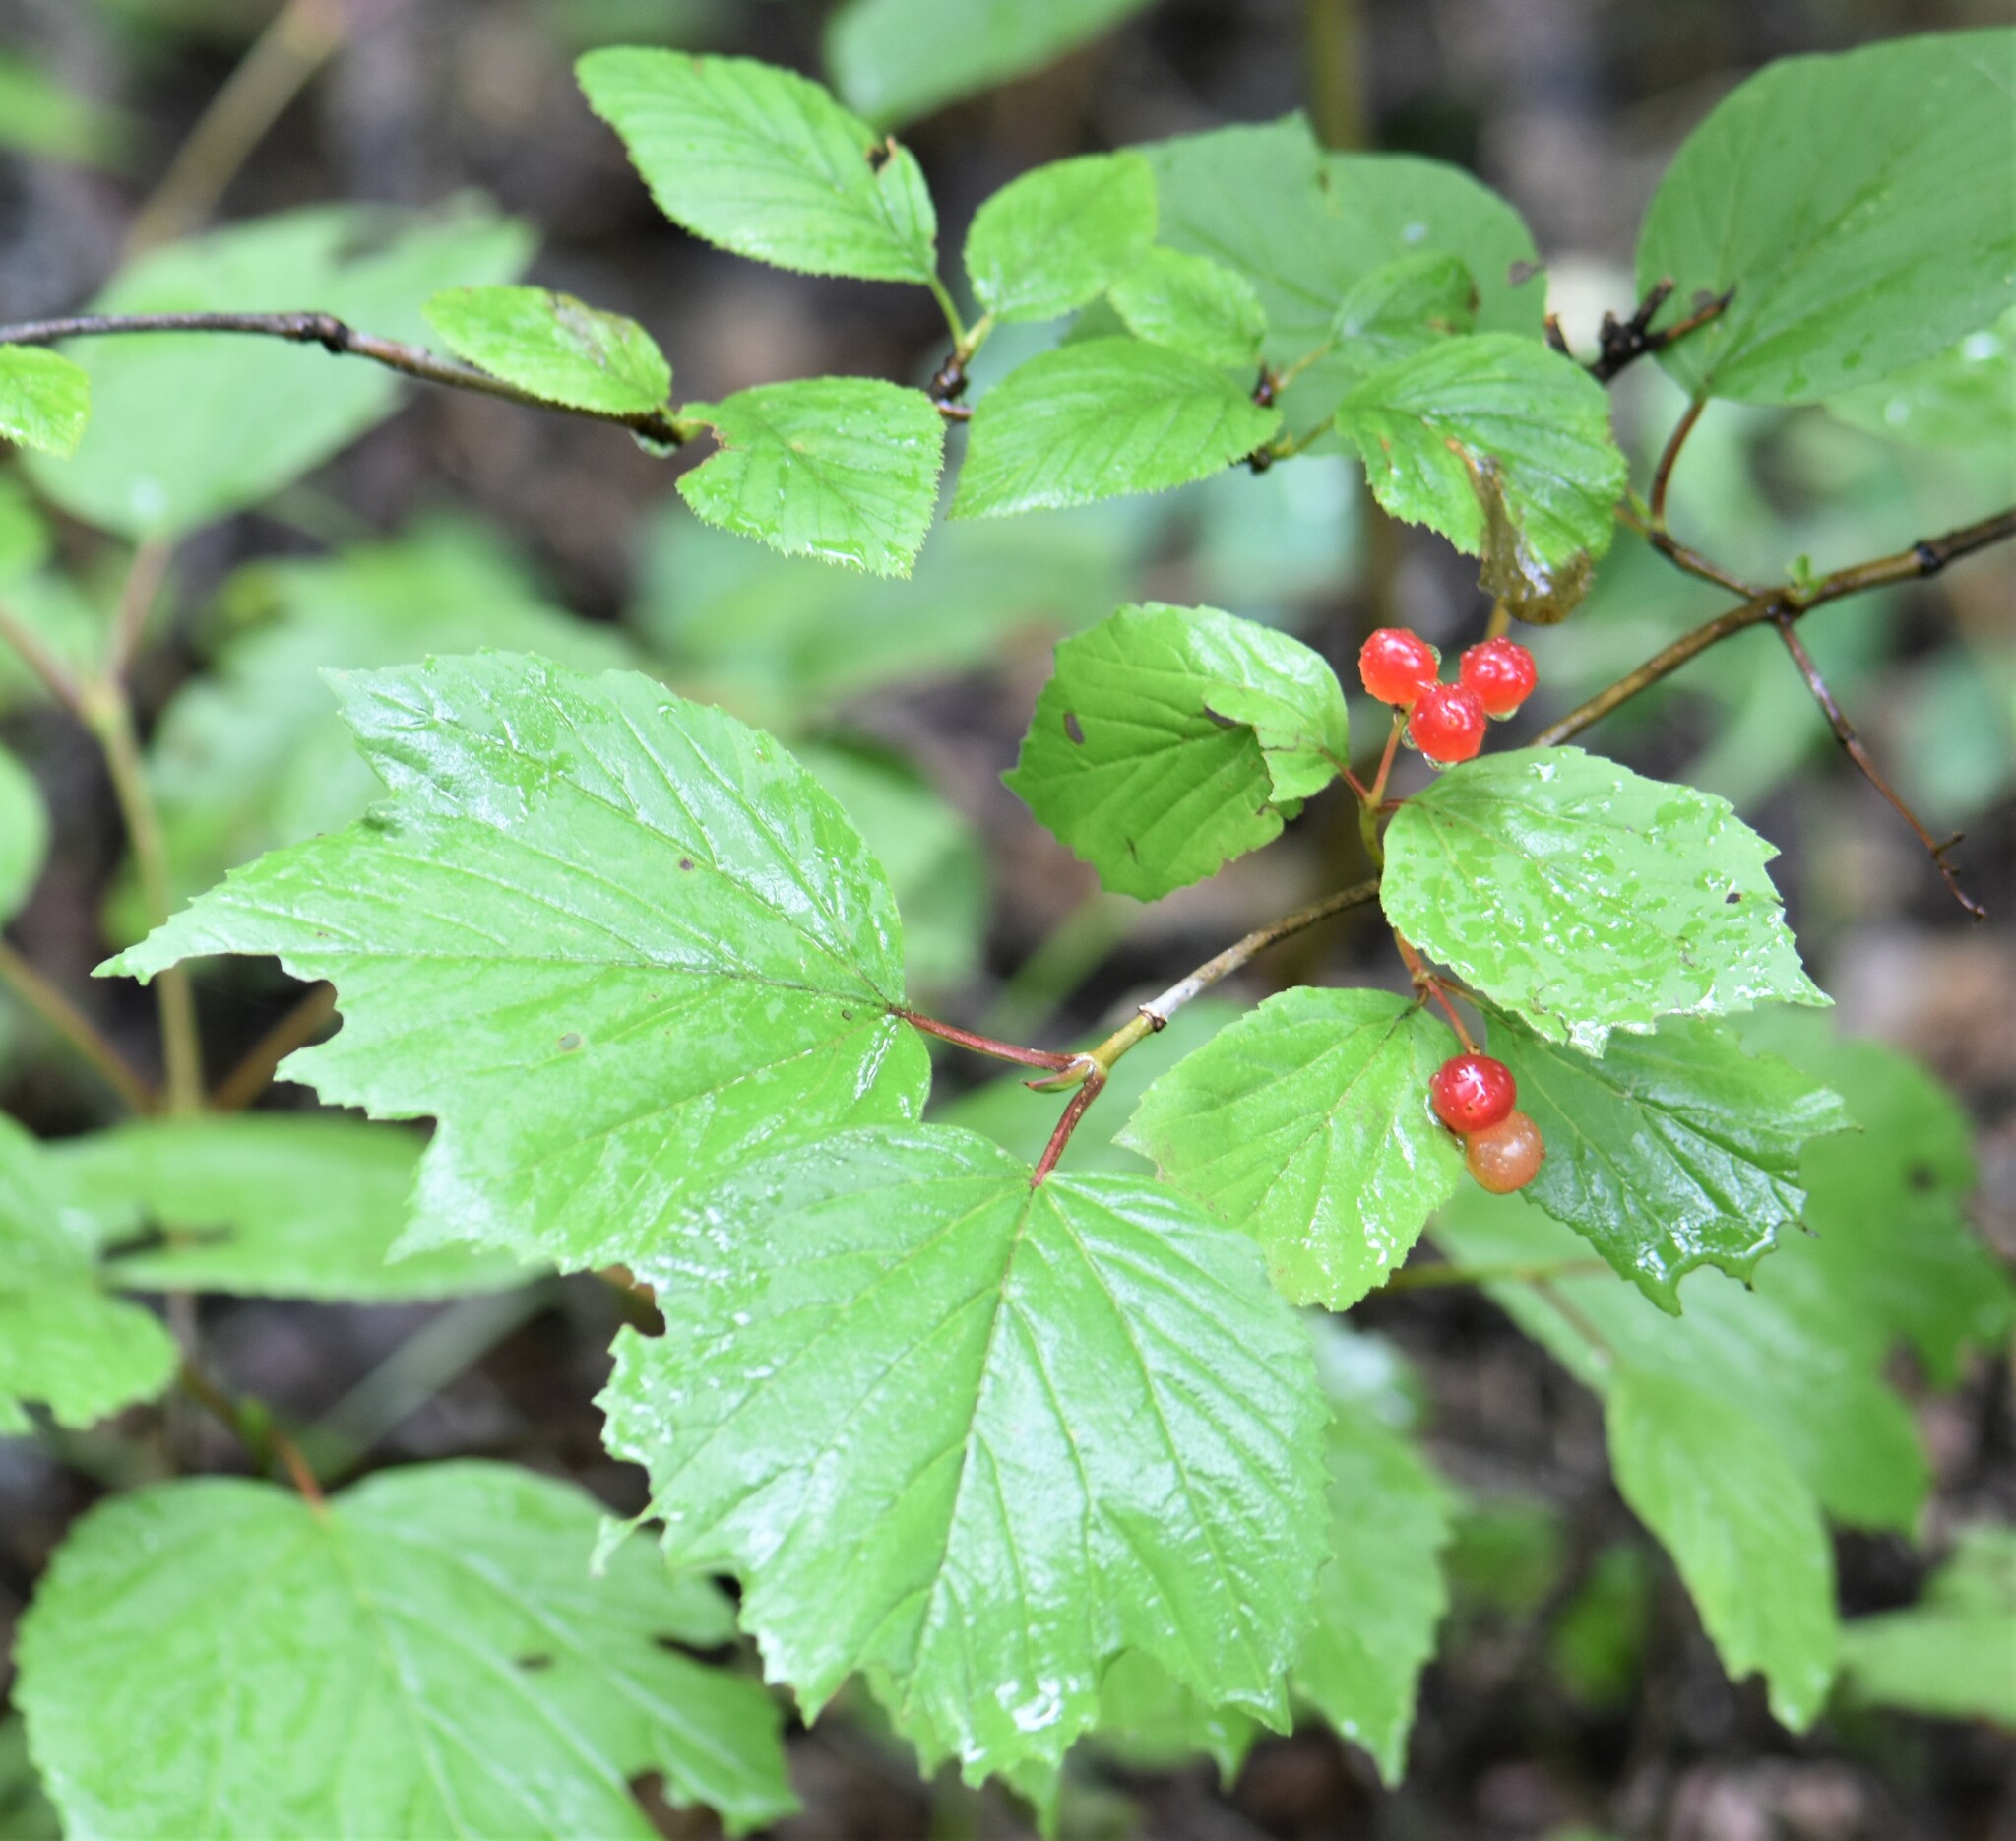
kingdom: Plantae
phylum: Tracheophyta
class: Magnoliopsida
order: Dipsacales
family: Viburnaceae
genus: Viburnum
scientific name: Viburnum edule
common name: Mooseberry
